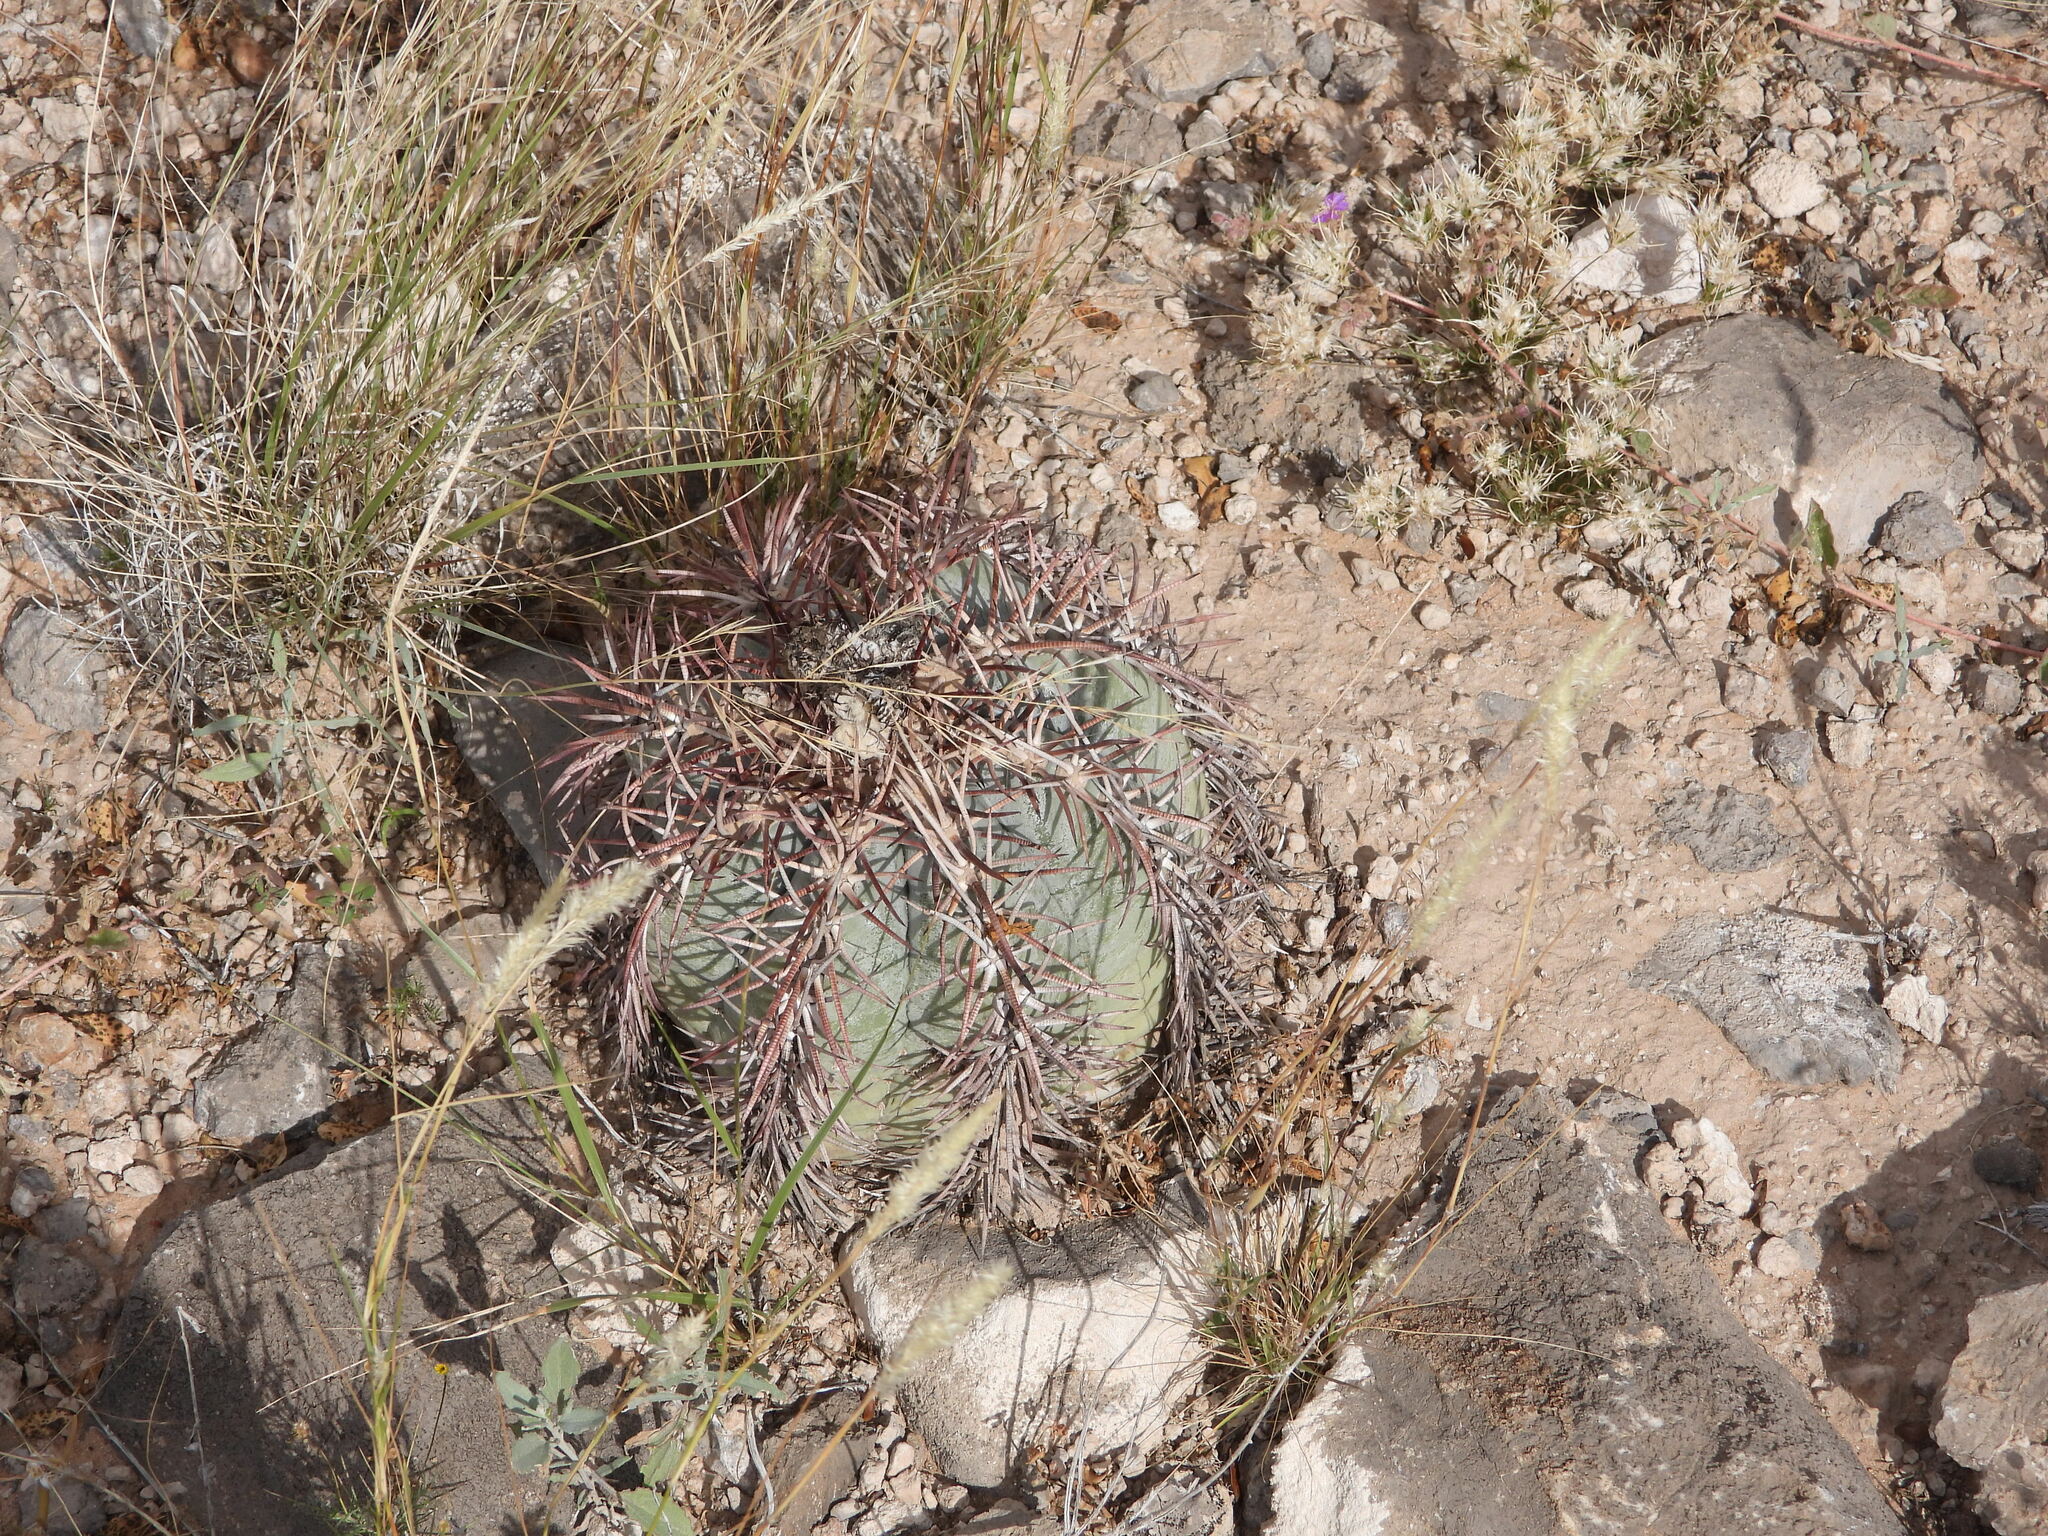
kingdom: Plantae
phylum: Tracheophyta
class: Magnoliopsida
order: Caryophyllales
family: Cactaceae
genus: Echinocactus
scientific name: Echinocactus horizonthalonius
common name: Devilshead
